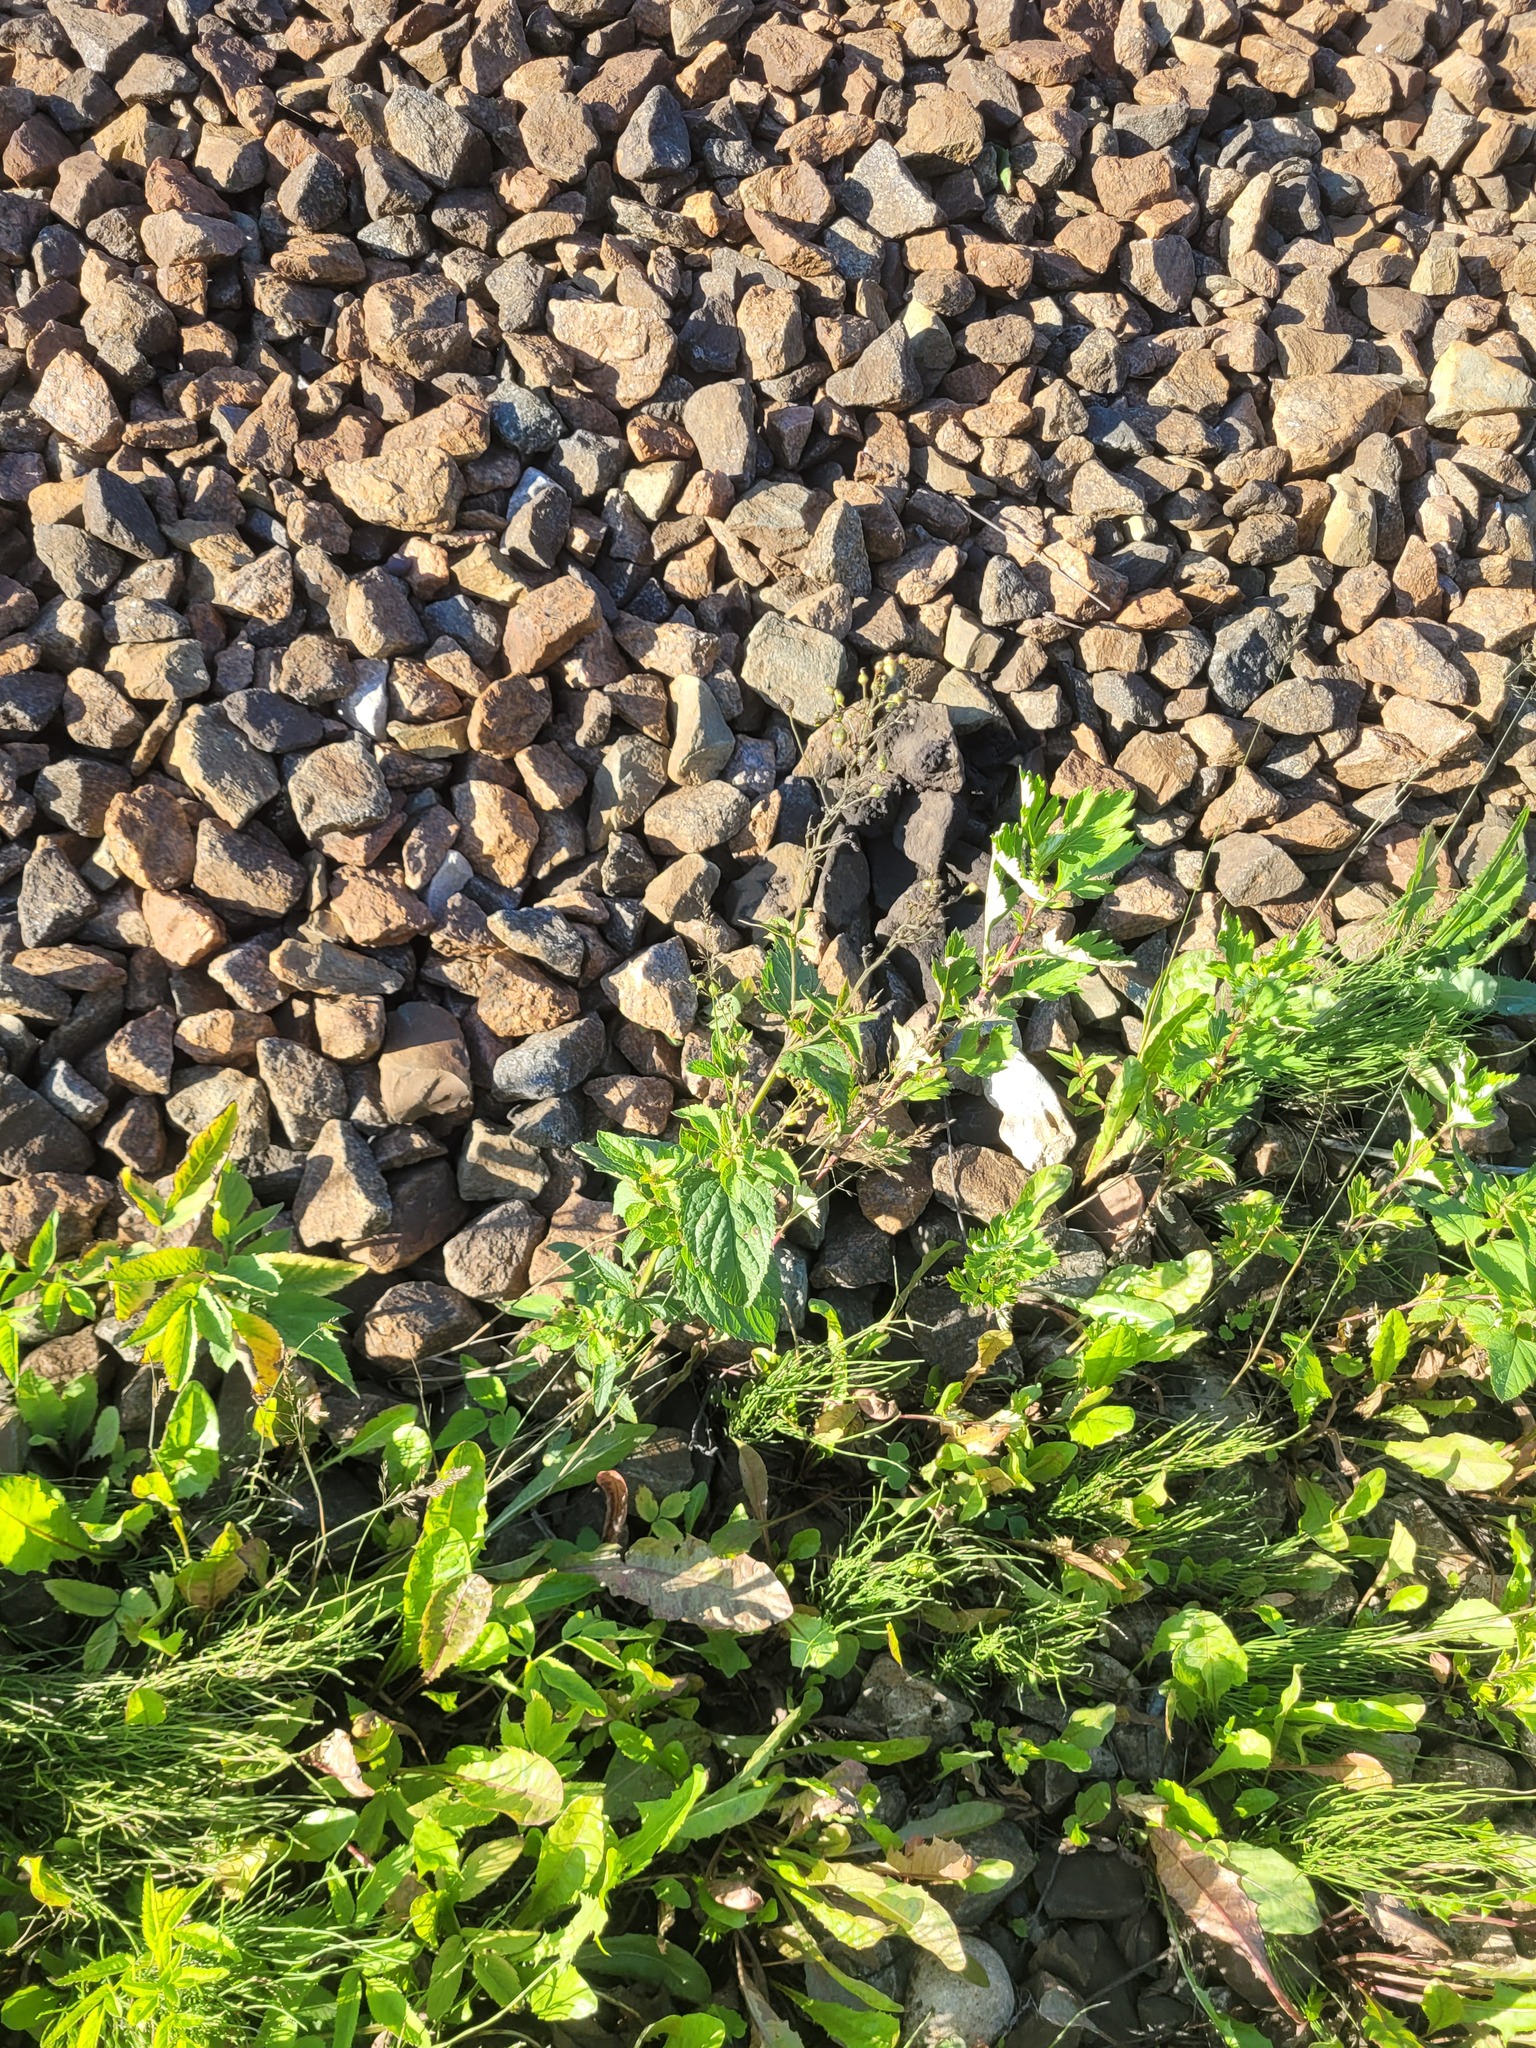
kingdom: Plantae
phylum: Tracheophyta
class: Magnoliopsida
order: Lamiales
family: Scrophulariaceae
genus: Scrophularia
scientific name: Scrophularia nodosa
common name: Common figwort
